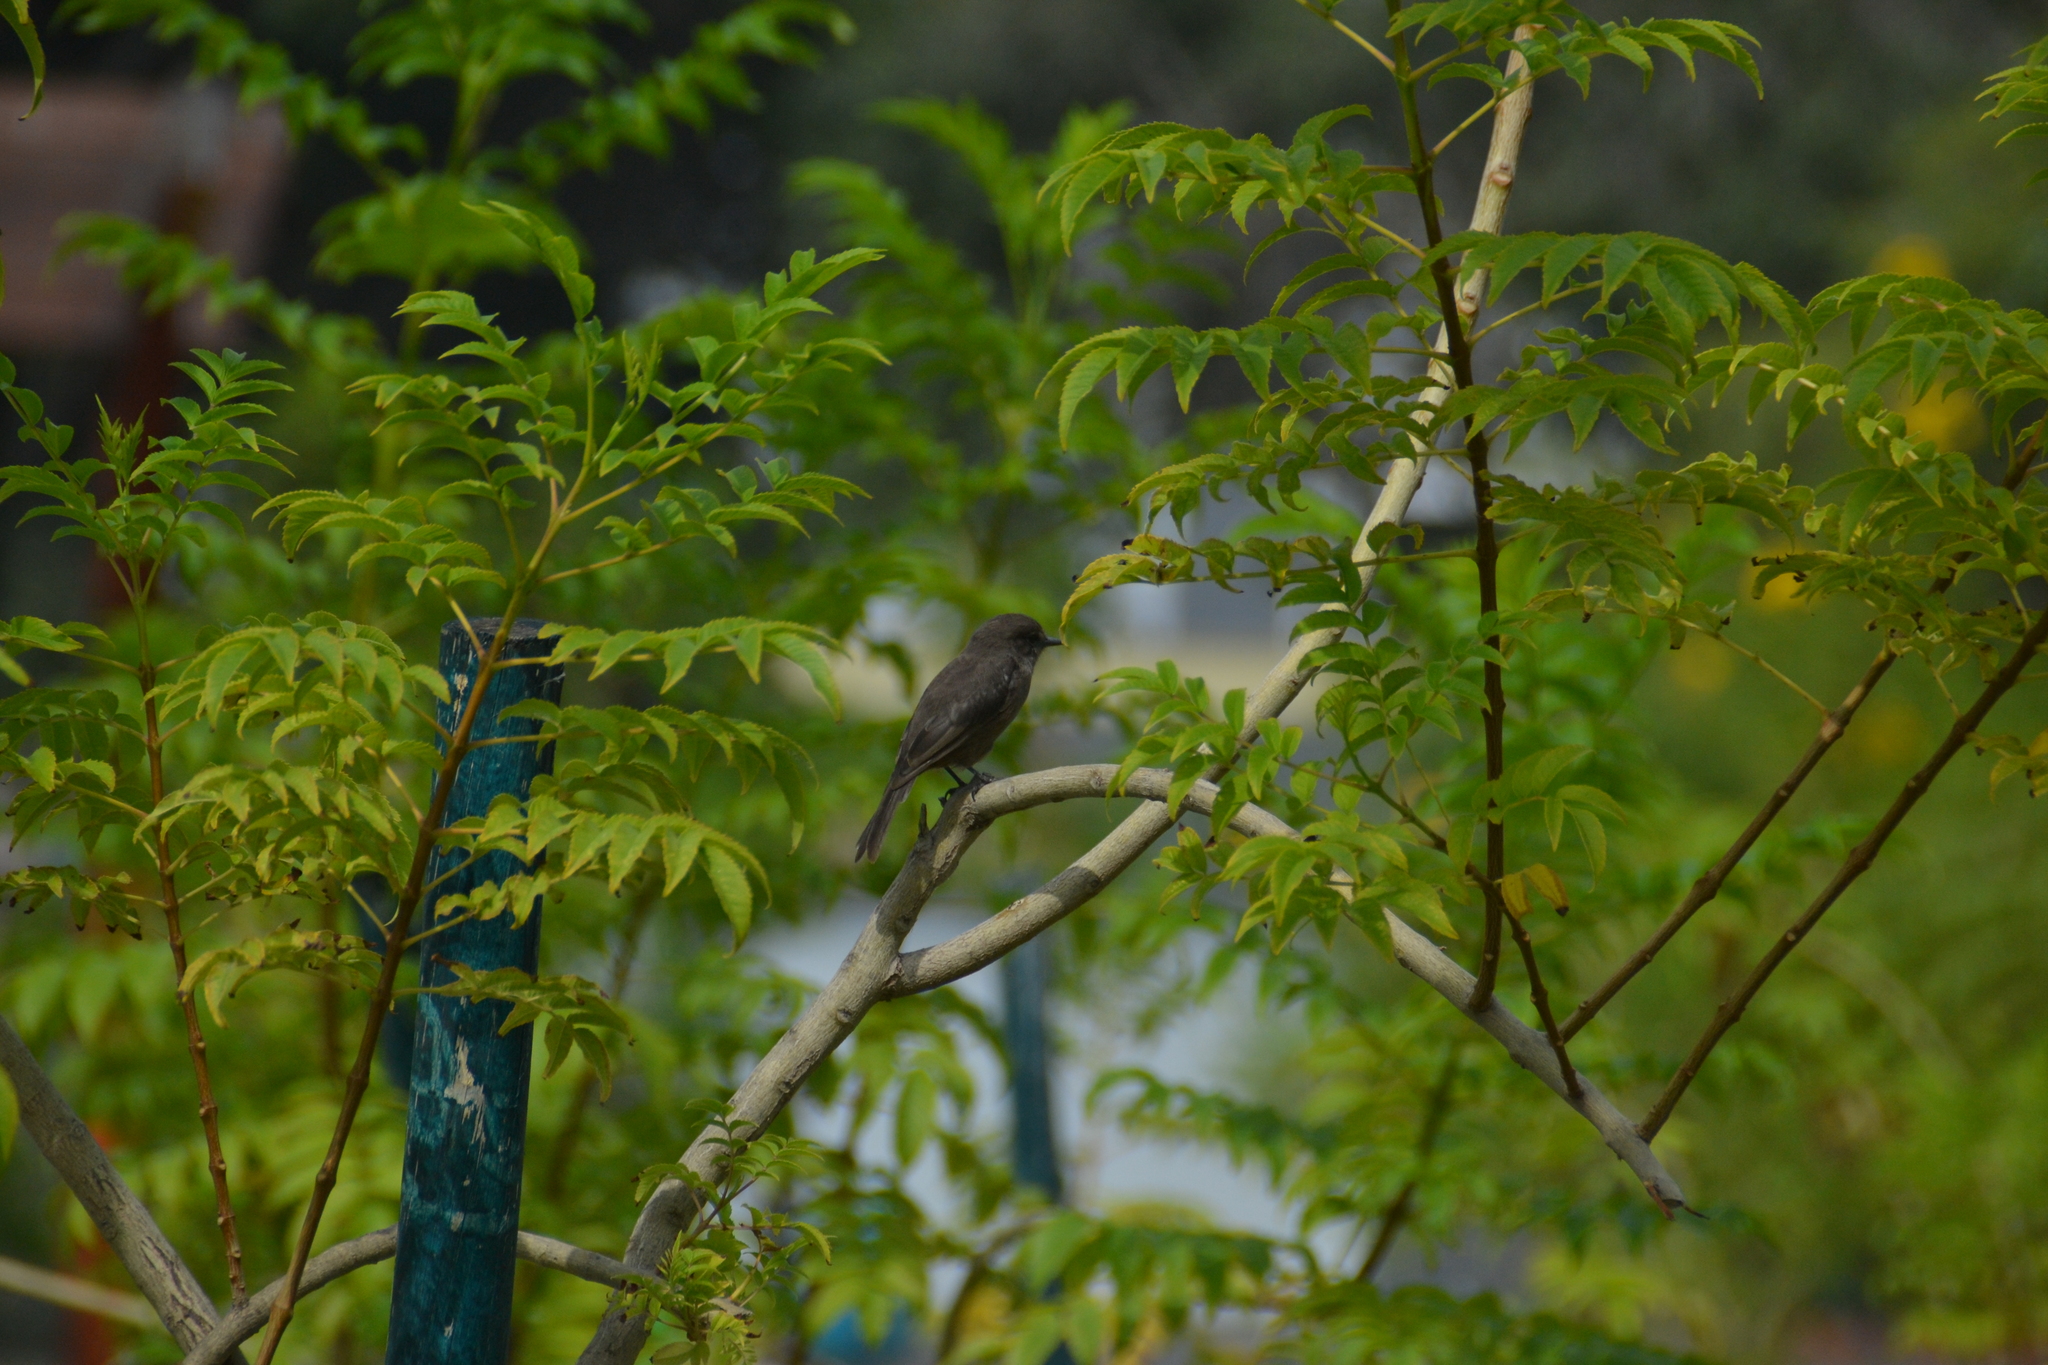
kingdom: Animalia
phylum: Chordata
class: Aves
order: Passeriformes
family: Tyrannidae
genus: Pyrocephalus
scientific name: Pyrocephalus rubinus
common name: Vermilion flycatcher
